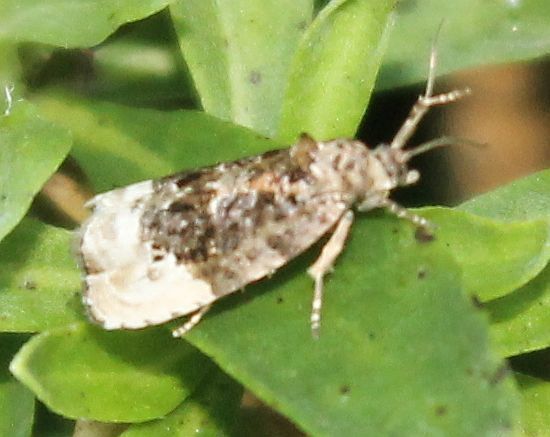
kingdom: Animalia
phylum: Arthropoda
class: Insecta
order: Lepidoptera
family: Tortricidae
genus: Hedya
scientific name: Hedya nubiferana
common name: Marbled orchard tortrix
